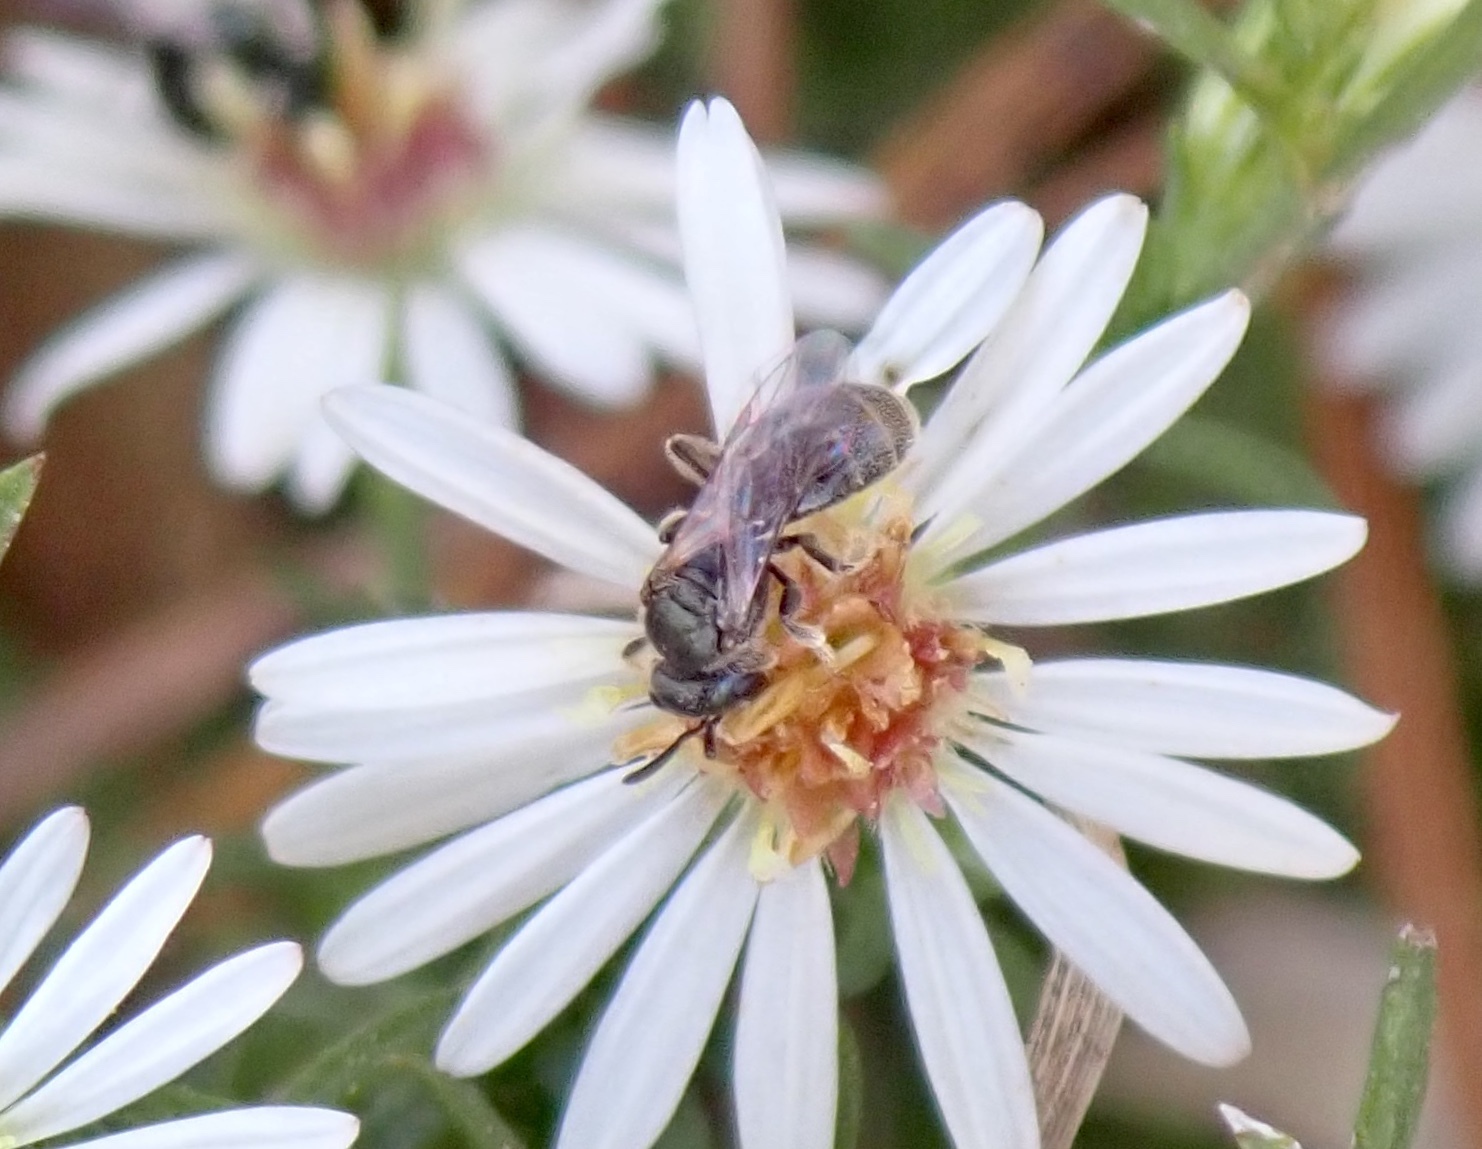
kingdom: Animalia
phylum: Arthropoda
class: Insecta
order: Hymenoptera
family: Halictidae
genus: Dialictus
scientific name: Dialictus
